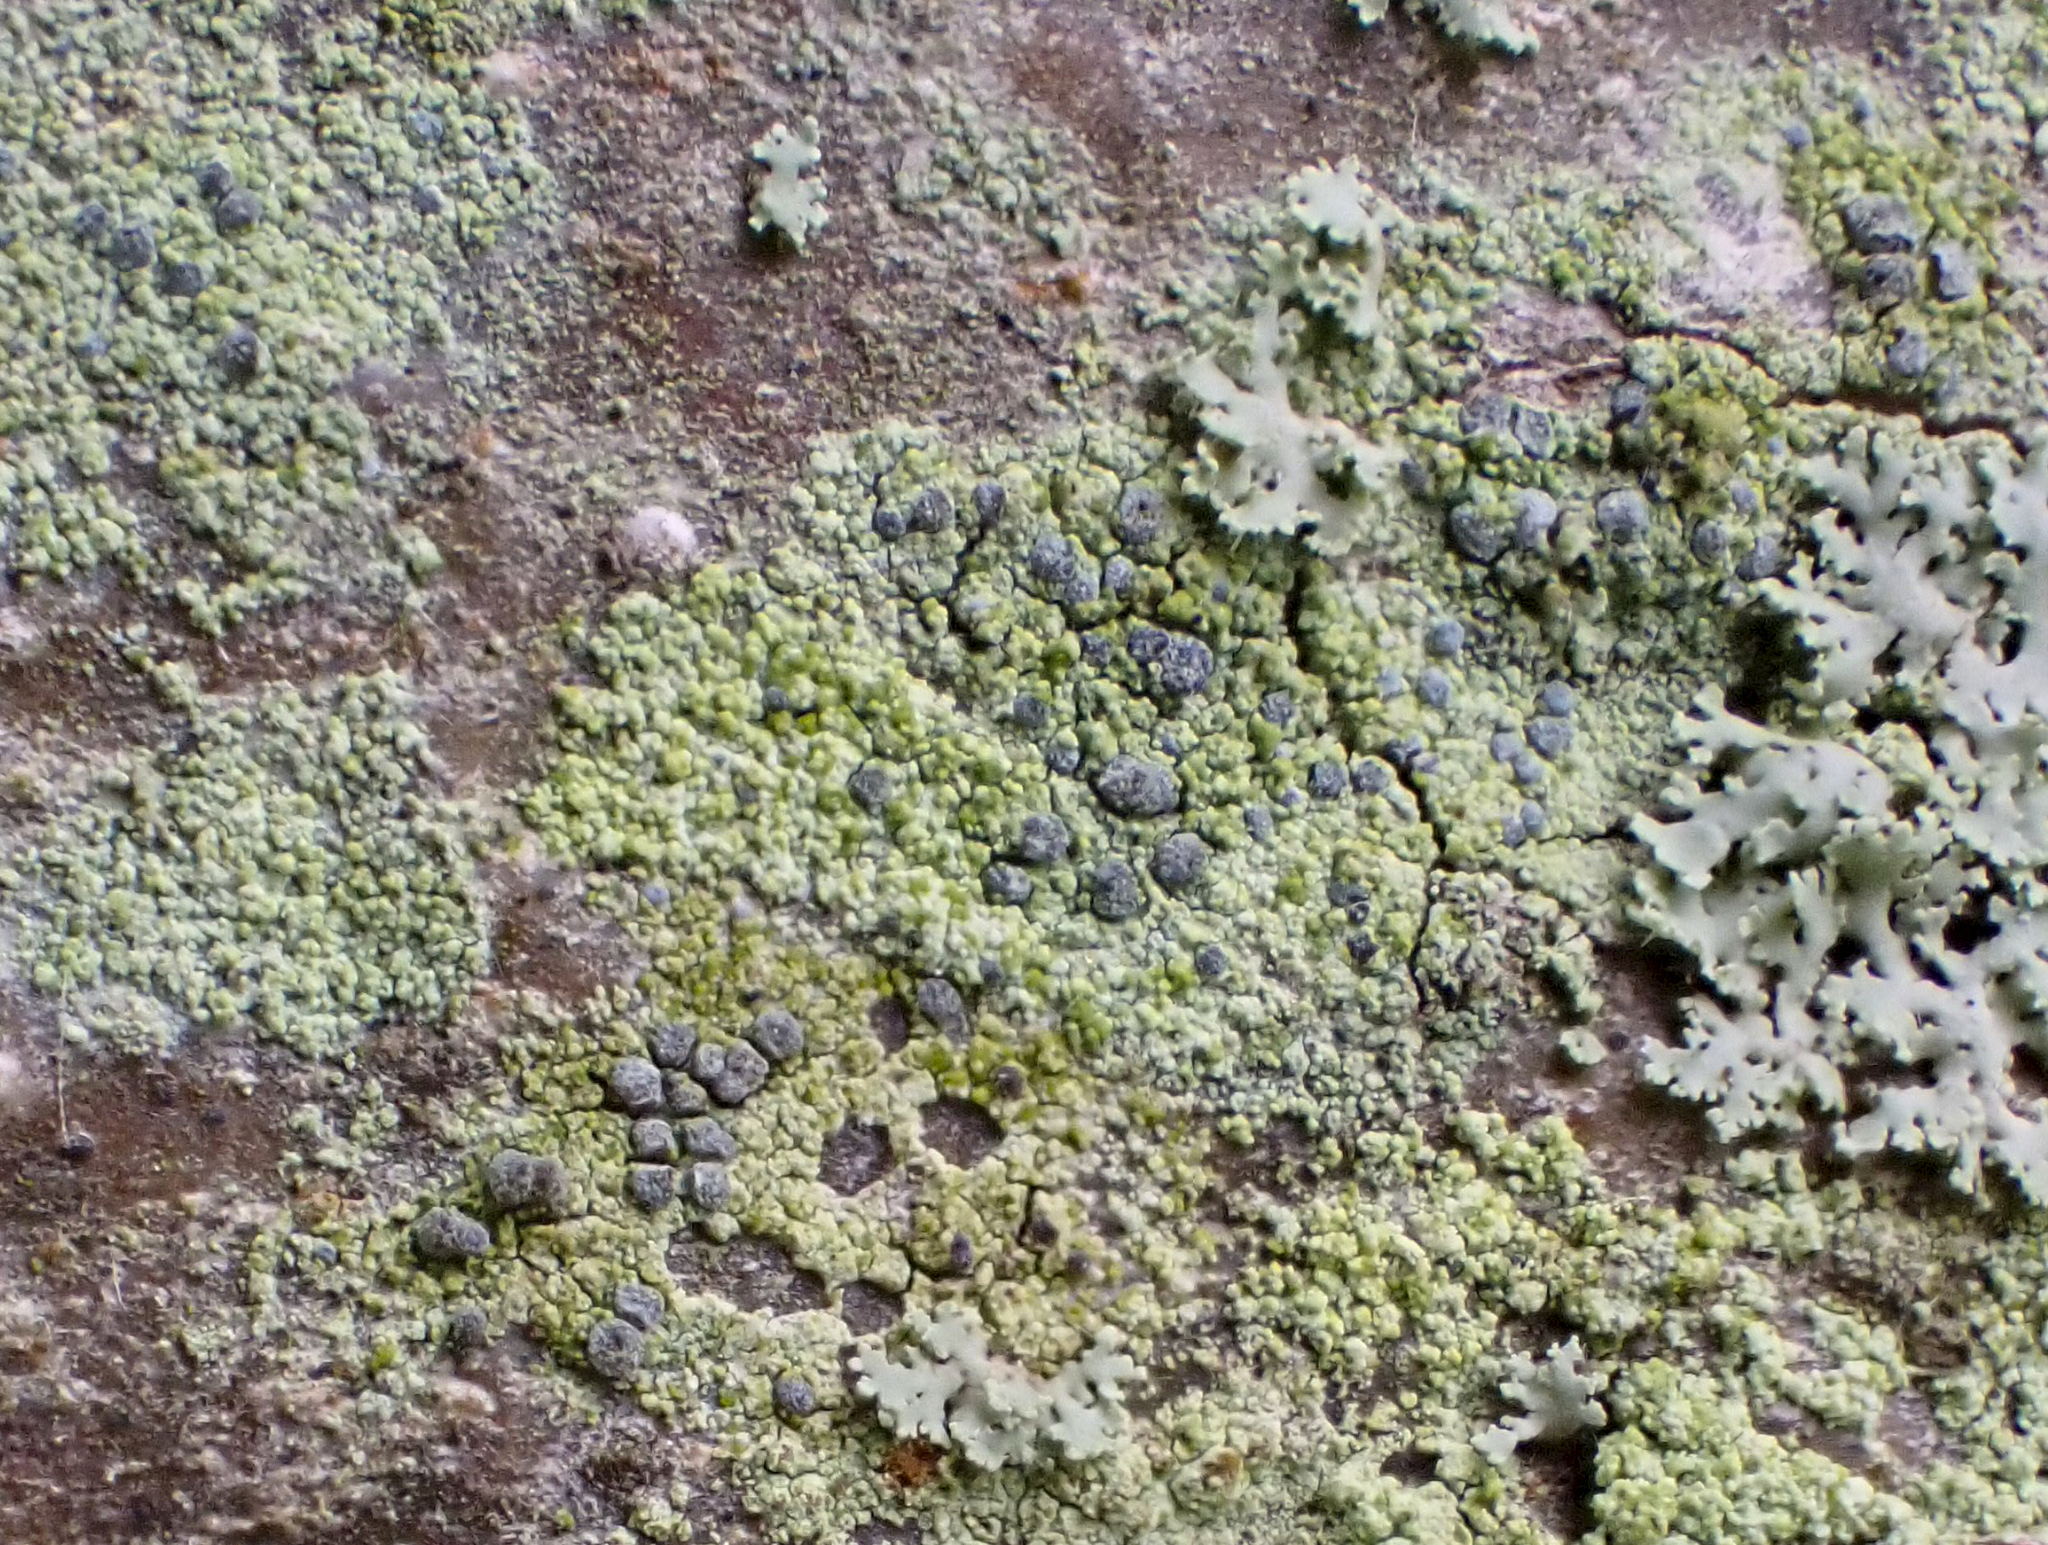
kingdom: Fungi
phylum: Ascomycota
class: Arthoniomycetes
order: Arthoniales
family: Chrysotrichaceae
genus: Chrysothrix
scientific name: Chrysothrix caesia
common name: Frosted comma lichen
